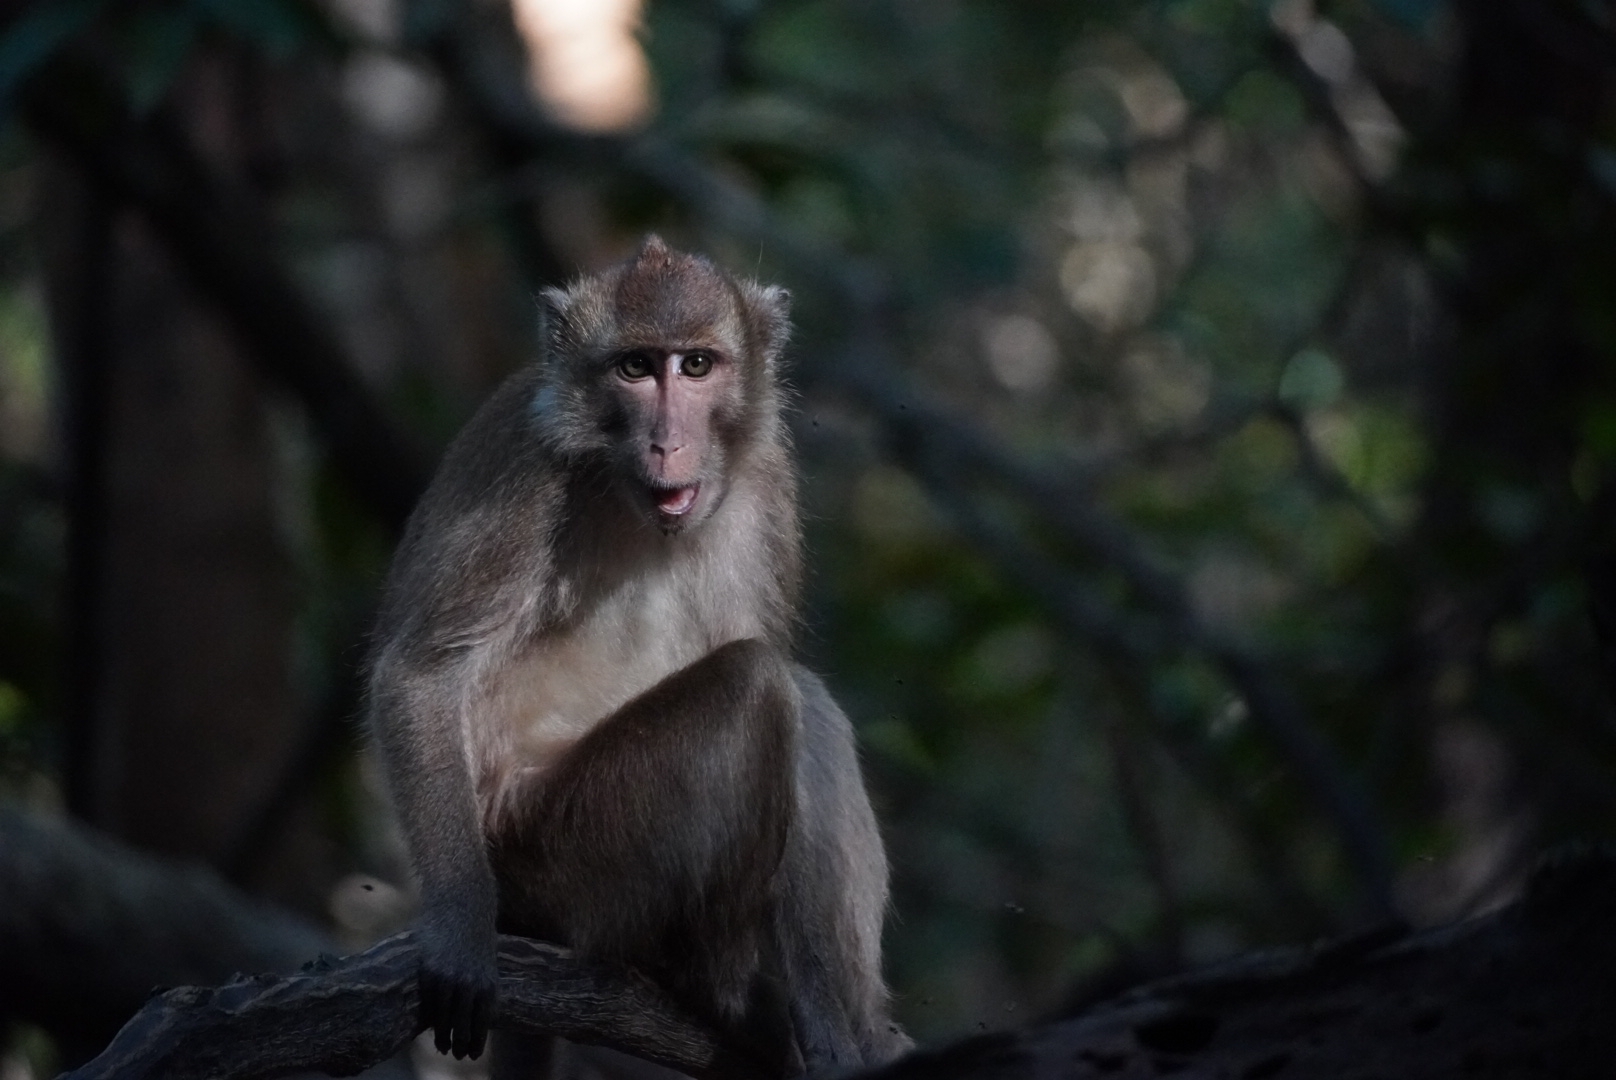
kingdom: Animalia
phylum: Chordata
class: Mammalia
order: Primates
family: Cercopithecidae
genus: Macaca
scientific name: Macaca fascicularis
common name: Crab-eating macaque
